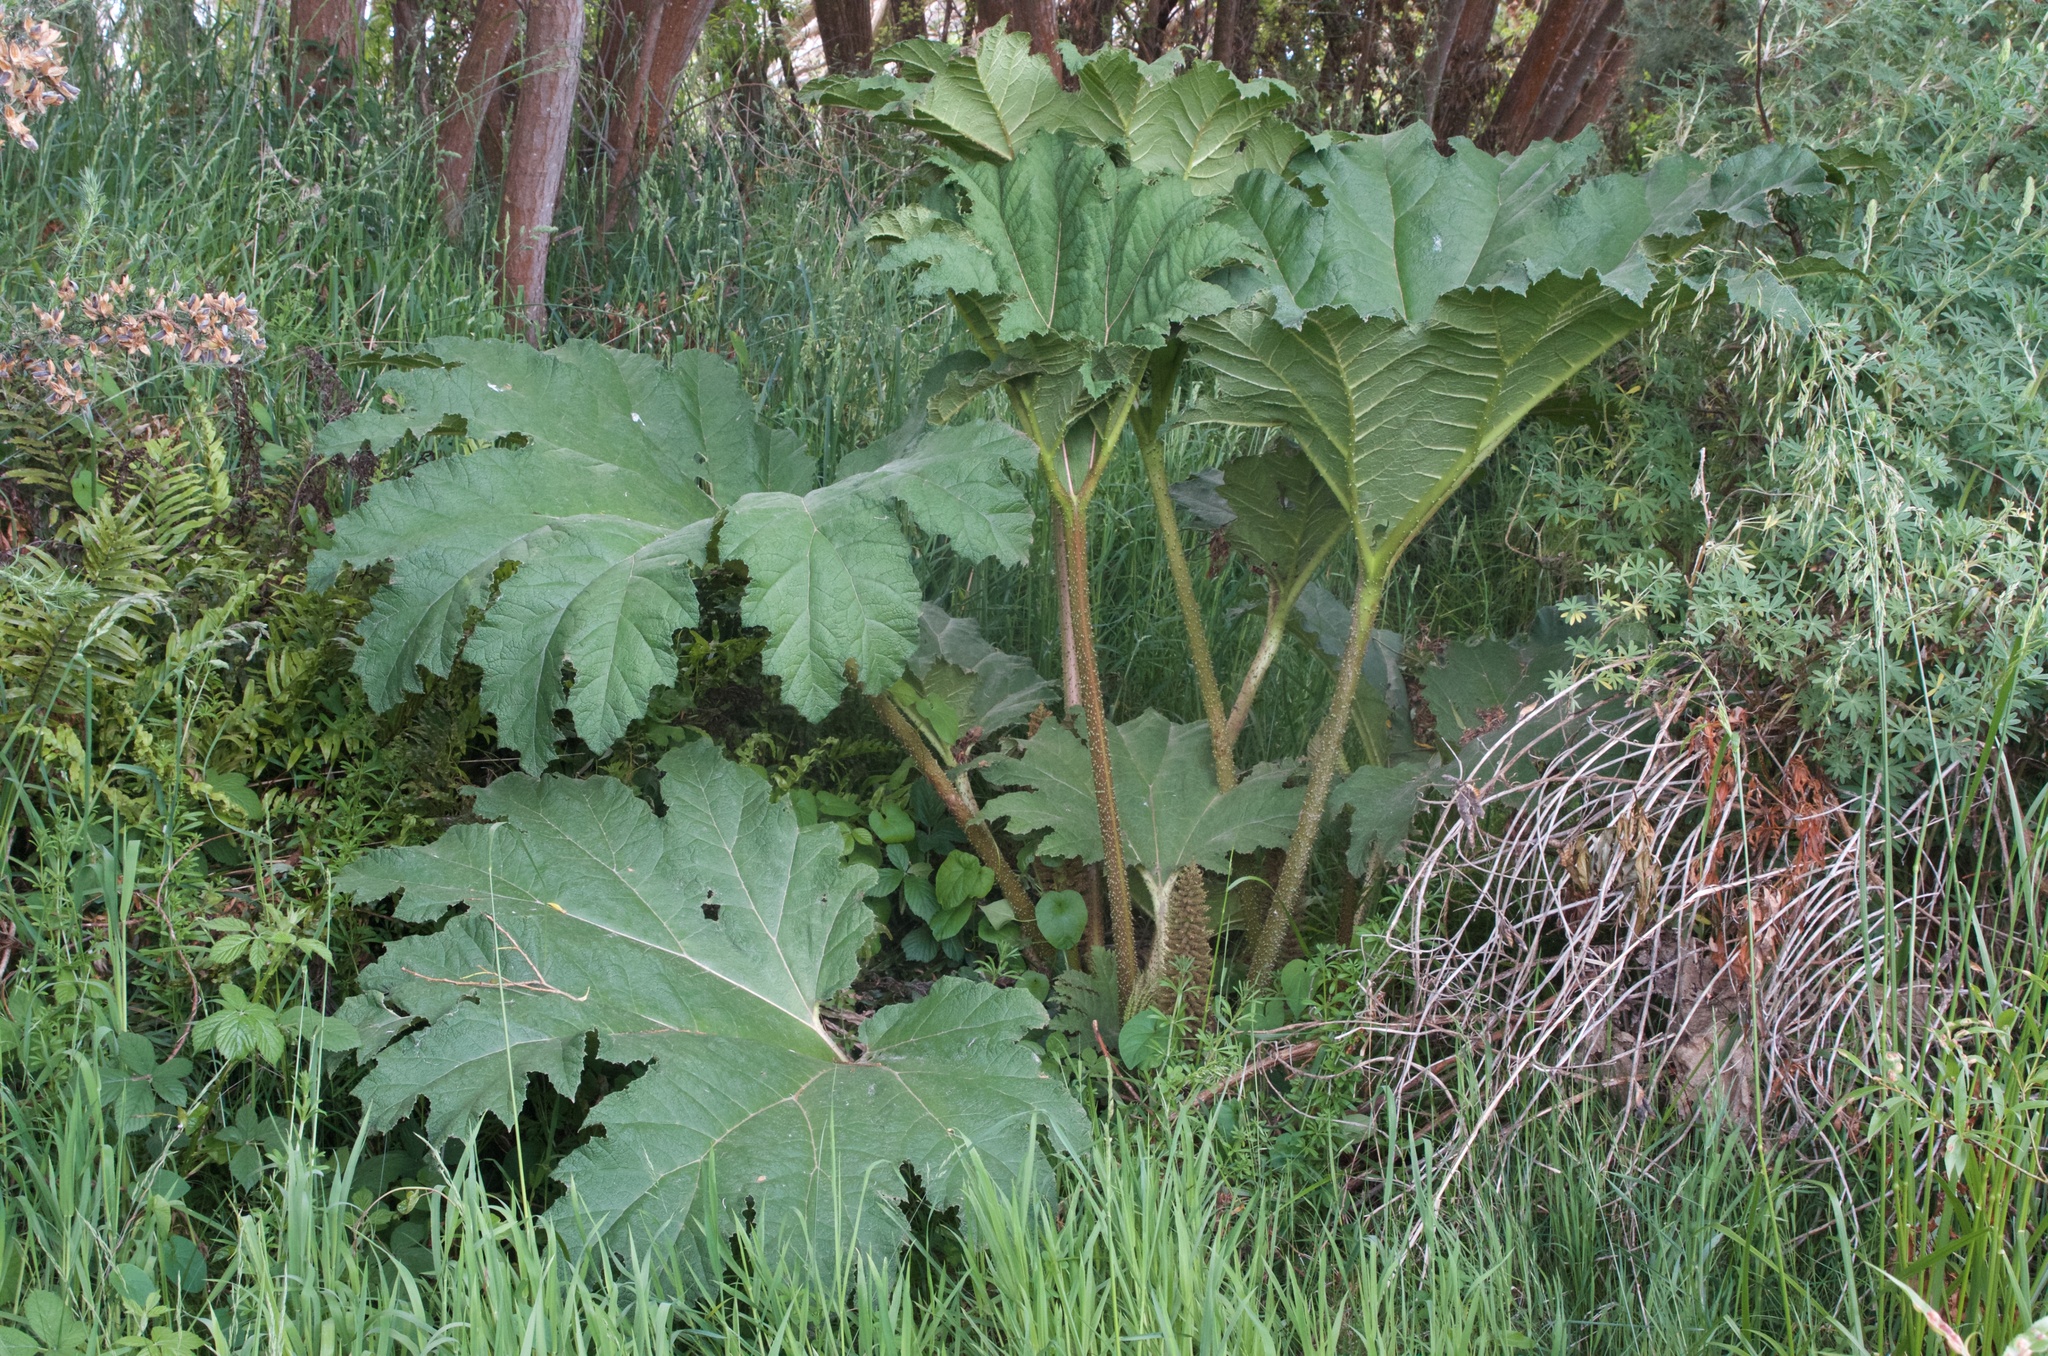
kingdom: Plantae
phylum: Tracheophyta
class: Magnoliopsida
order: Gunnerales
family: Gunneraceae
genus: Gunnera
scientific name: Gunnera tinctoria
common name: Giant-rhubarb
